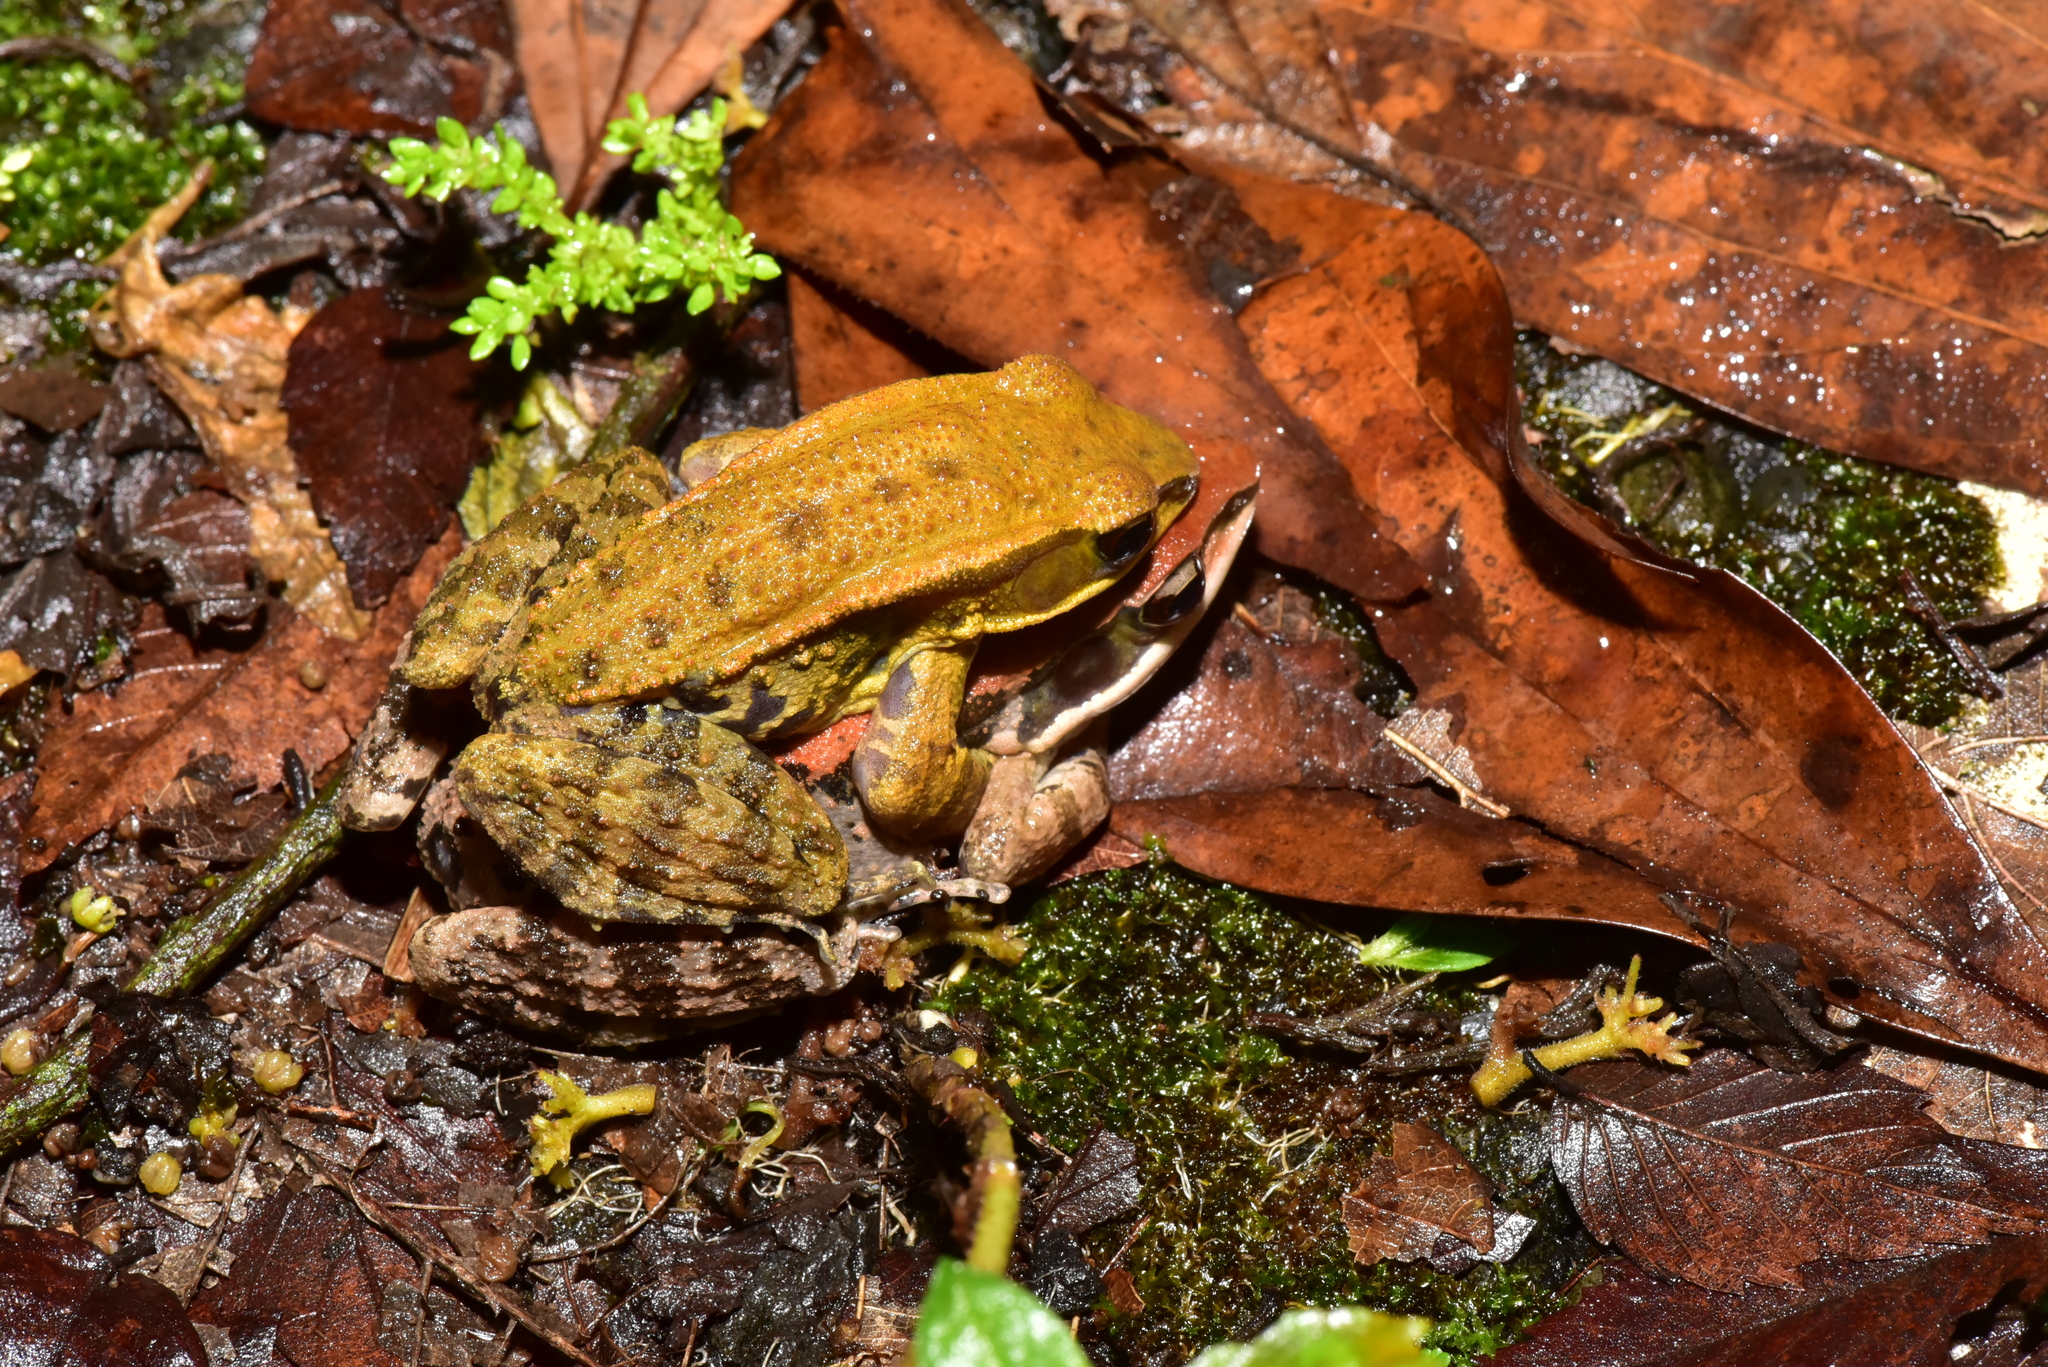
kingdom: Animalia
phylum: Chordata
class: Amphibia
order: Anura
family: Ranidae
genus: Hylarana
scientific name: Hylarana latouchii
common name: Broad-folded frog
